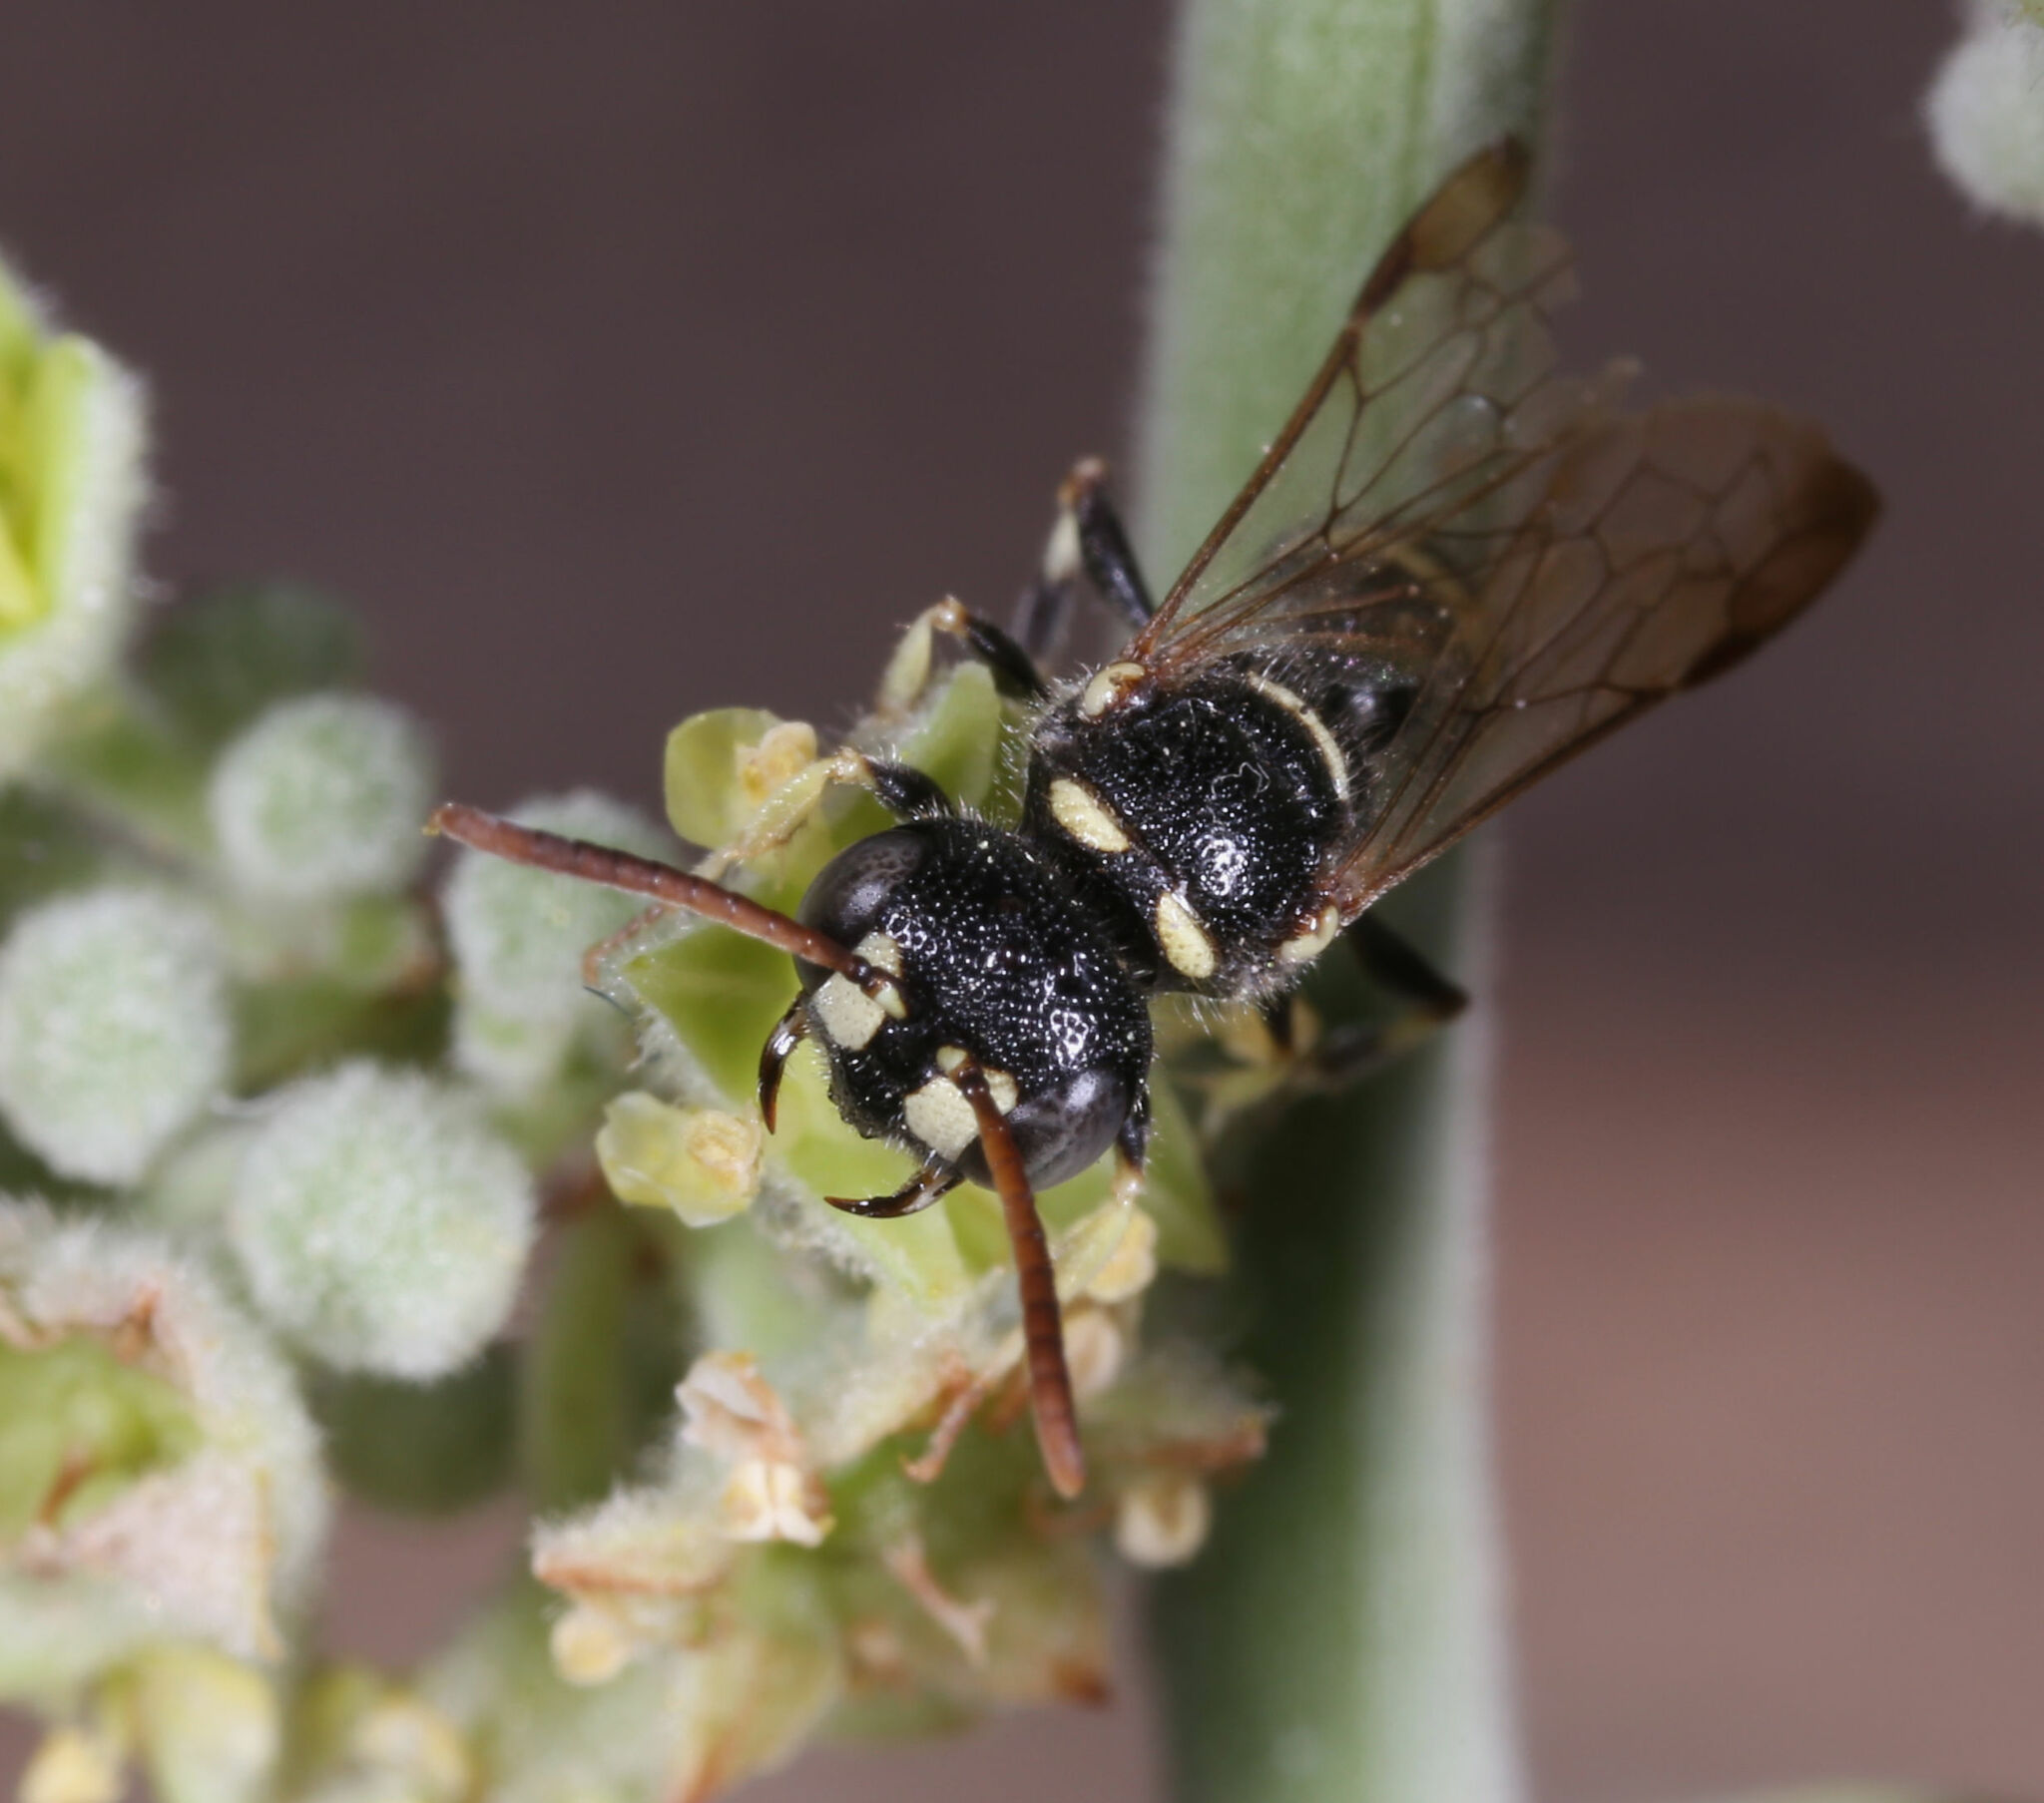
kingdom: Animalia
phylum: Arthropoda
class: Insecta
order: Hymenoptera
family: Crabronidae
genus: Cerceris
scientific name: Cerceris convergens
